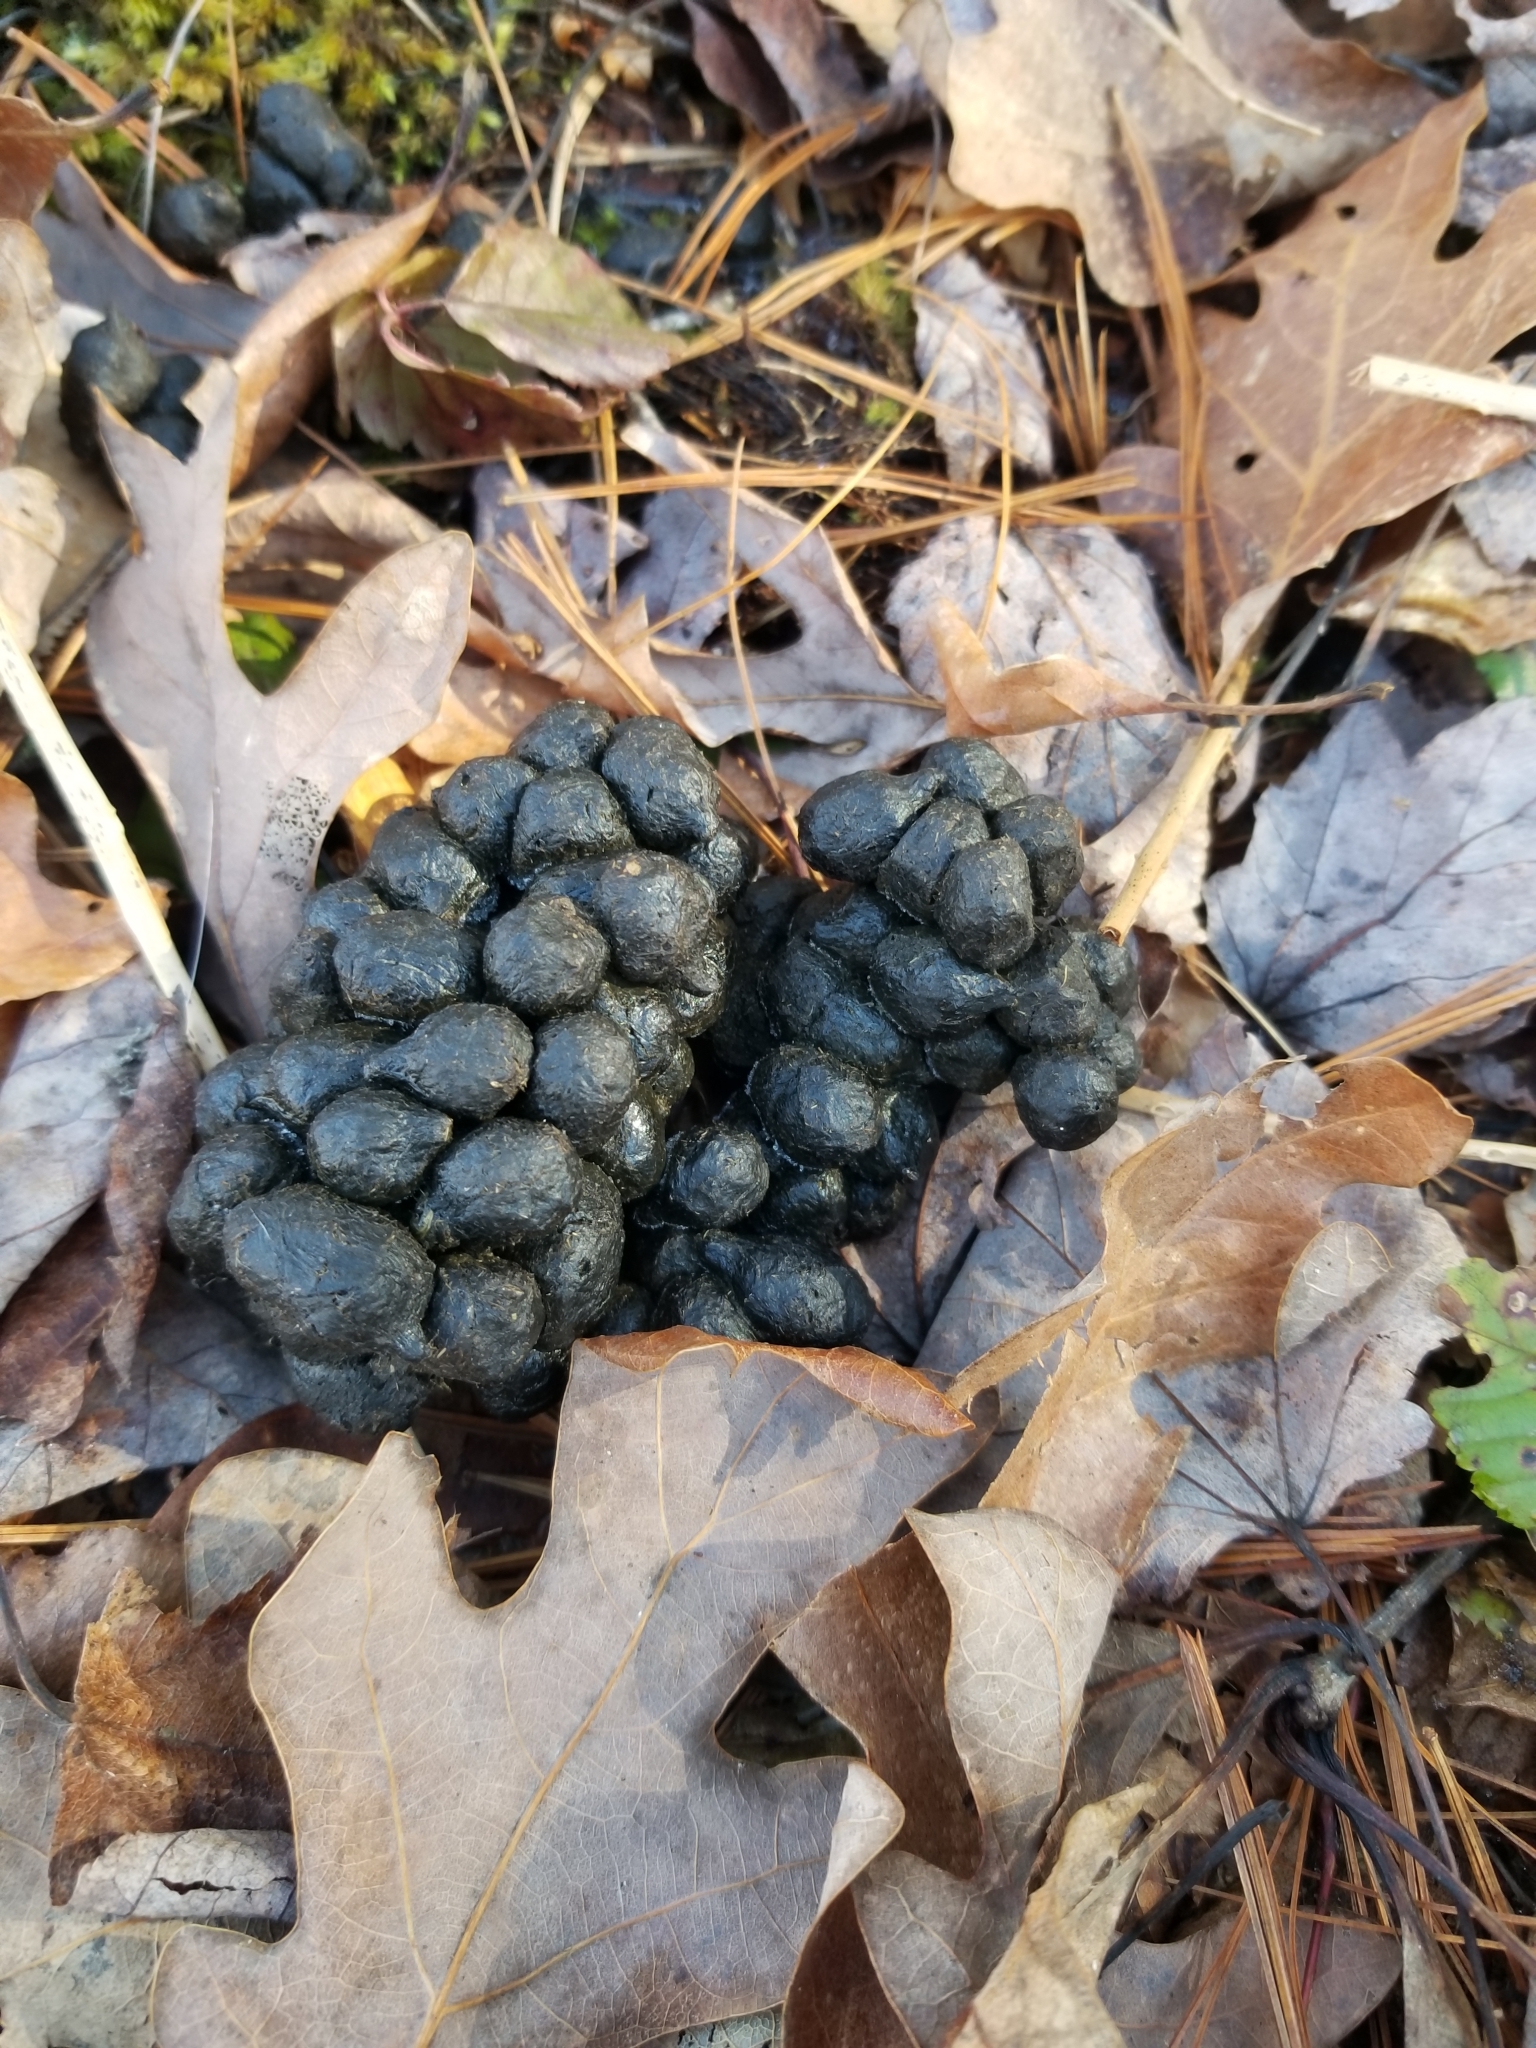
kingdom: Animalia
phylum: Chordata
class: Mammalia
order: Artiodactyla
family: Cervidae
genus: Odocoileus
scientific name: Odocoileus virginianus
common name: White-tailed deer
